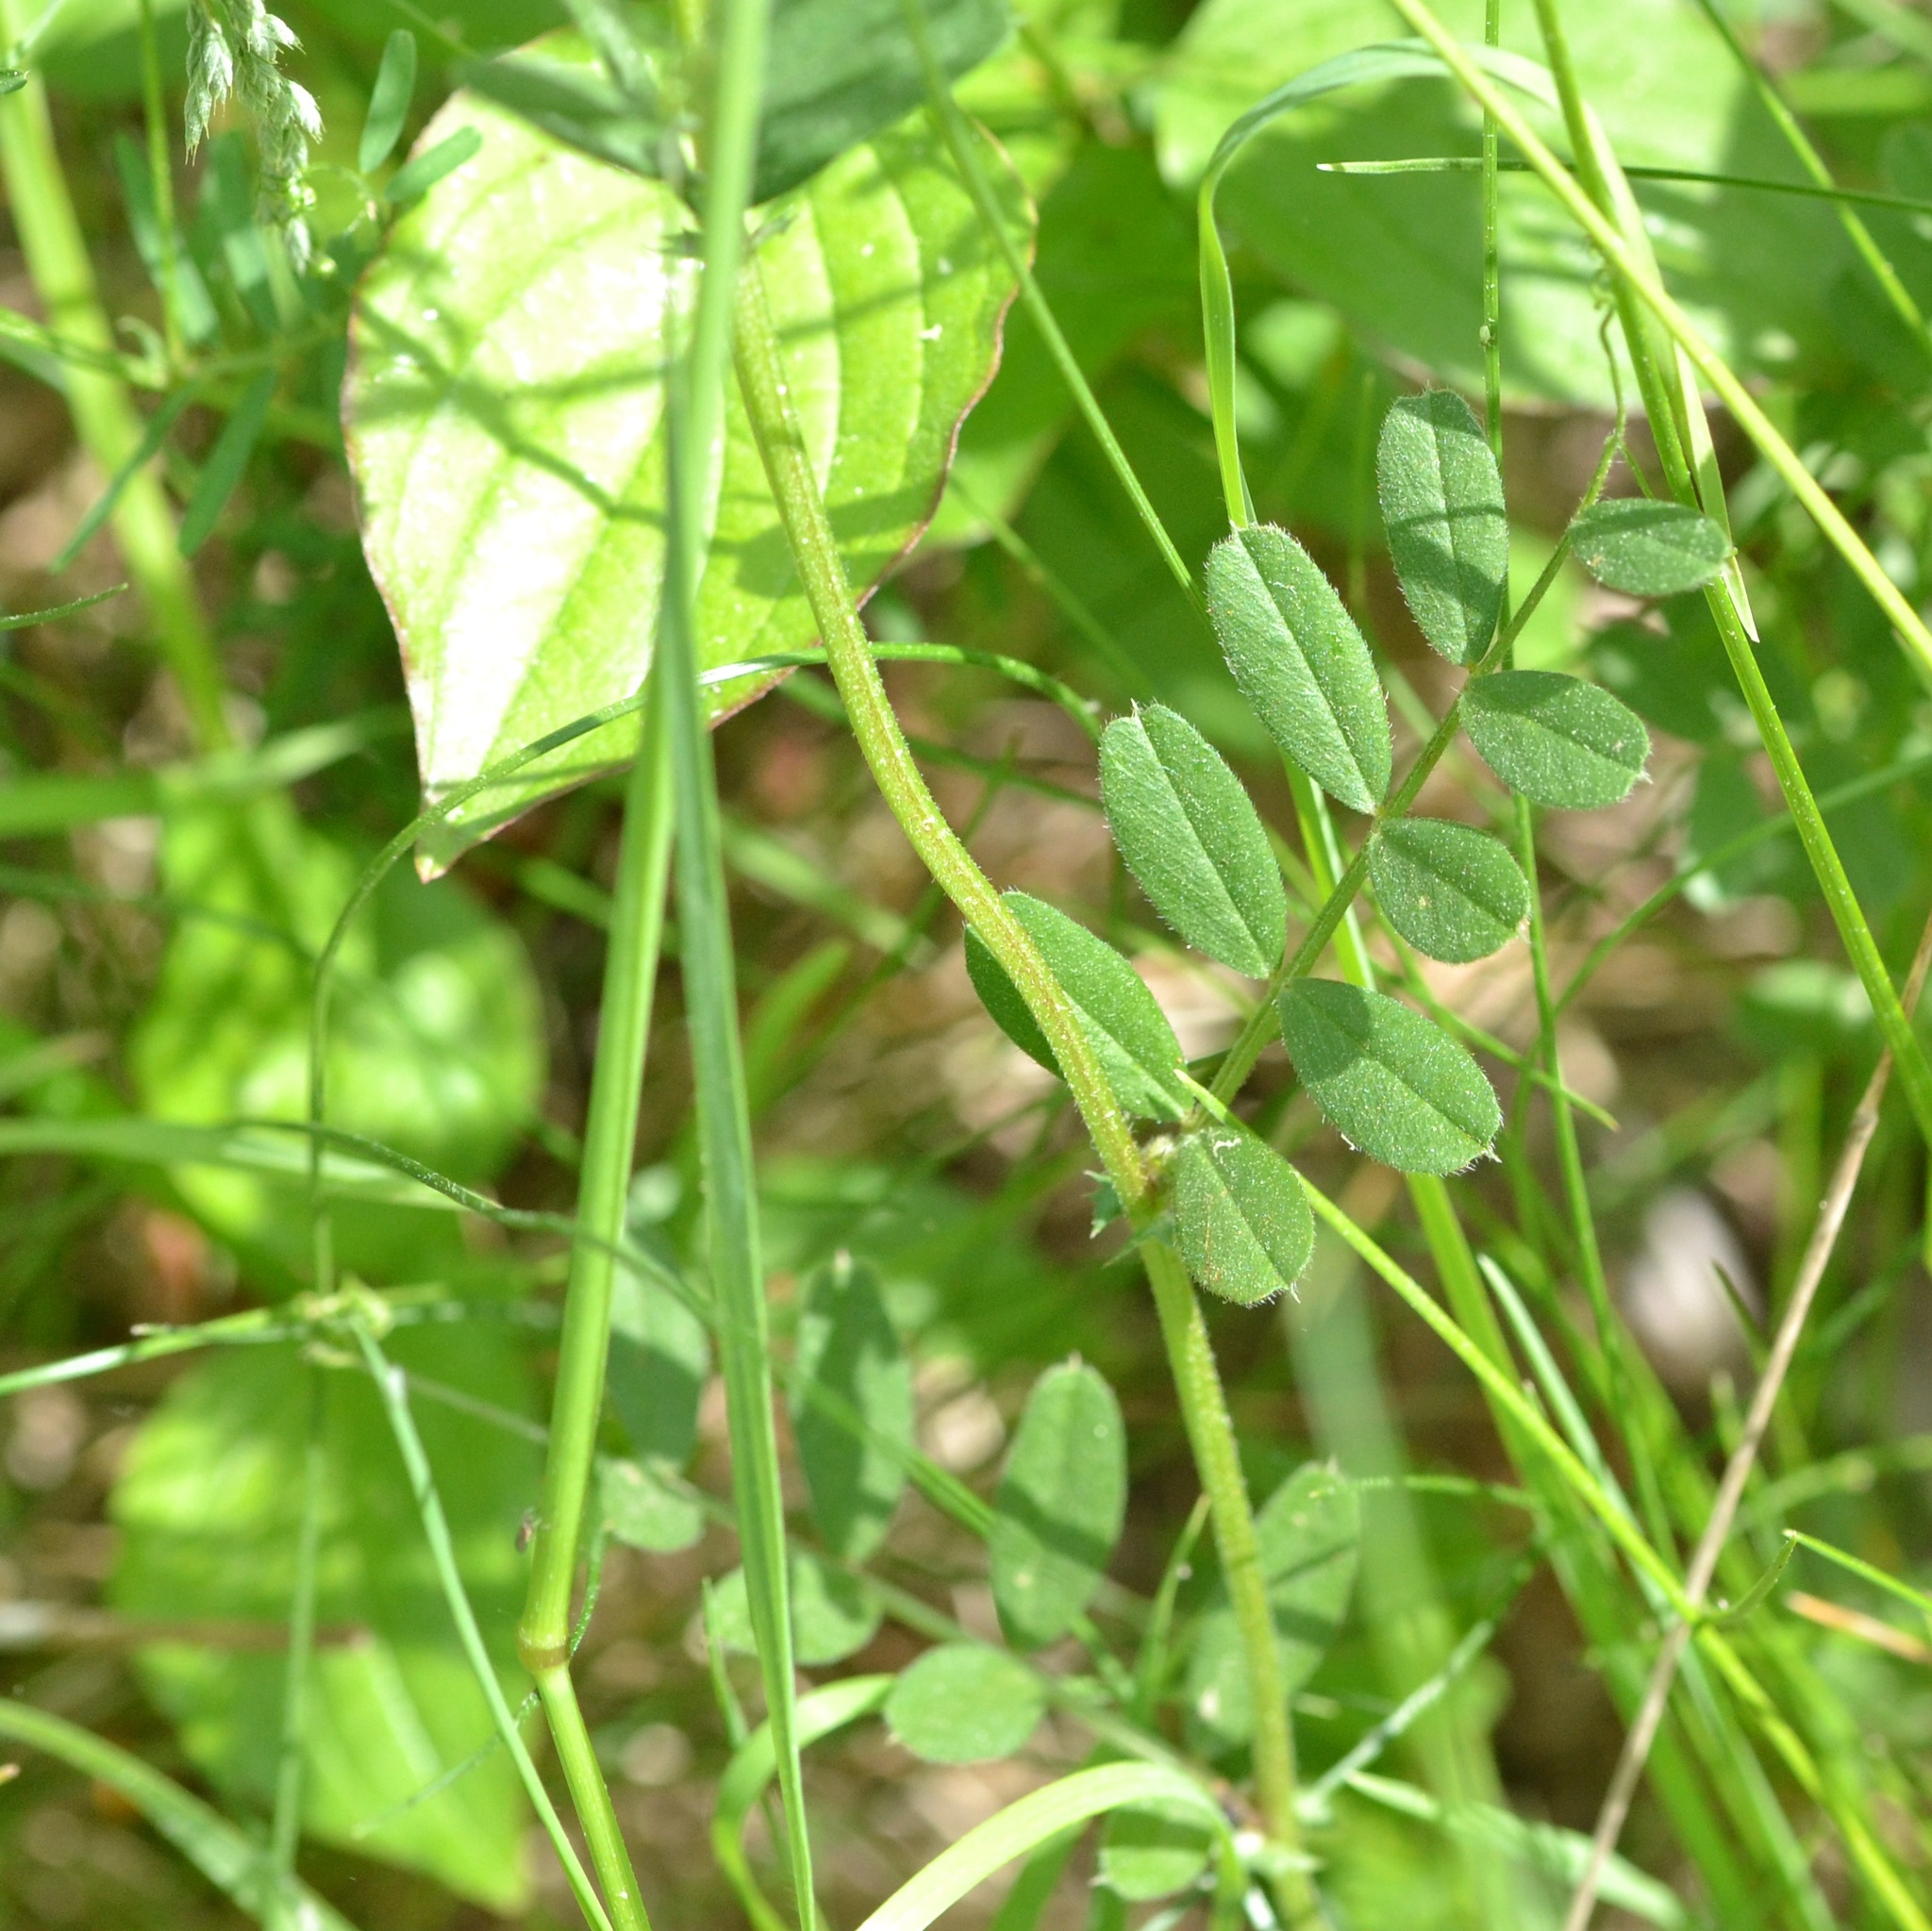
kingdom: Plantae
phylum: Tracheophyta
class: Magnoliopsida
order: Fabales
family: Fabaceae
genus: Vicia
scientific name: Vicia sativa
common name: Garden vetch
